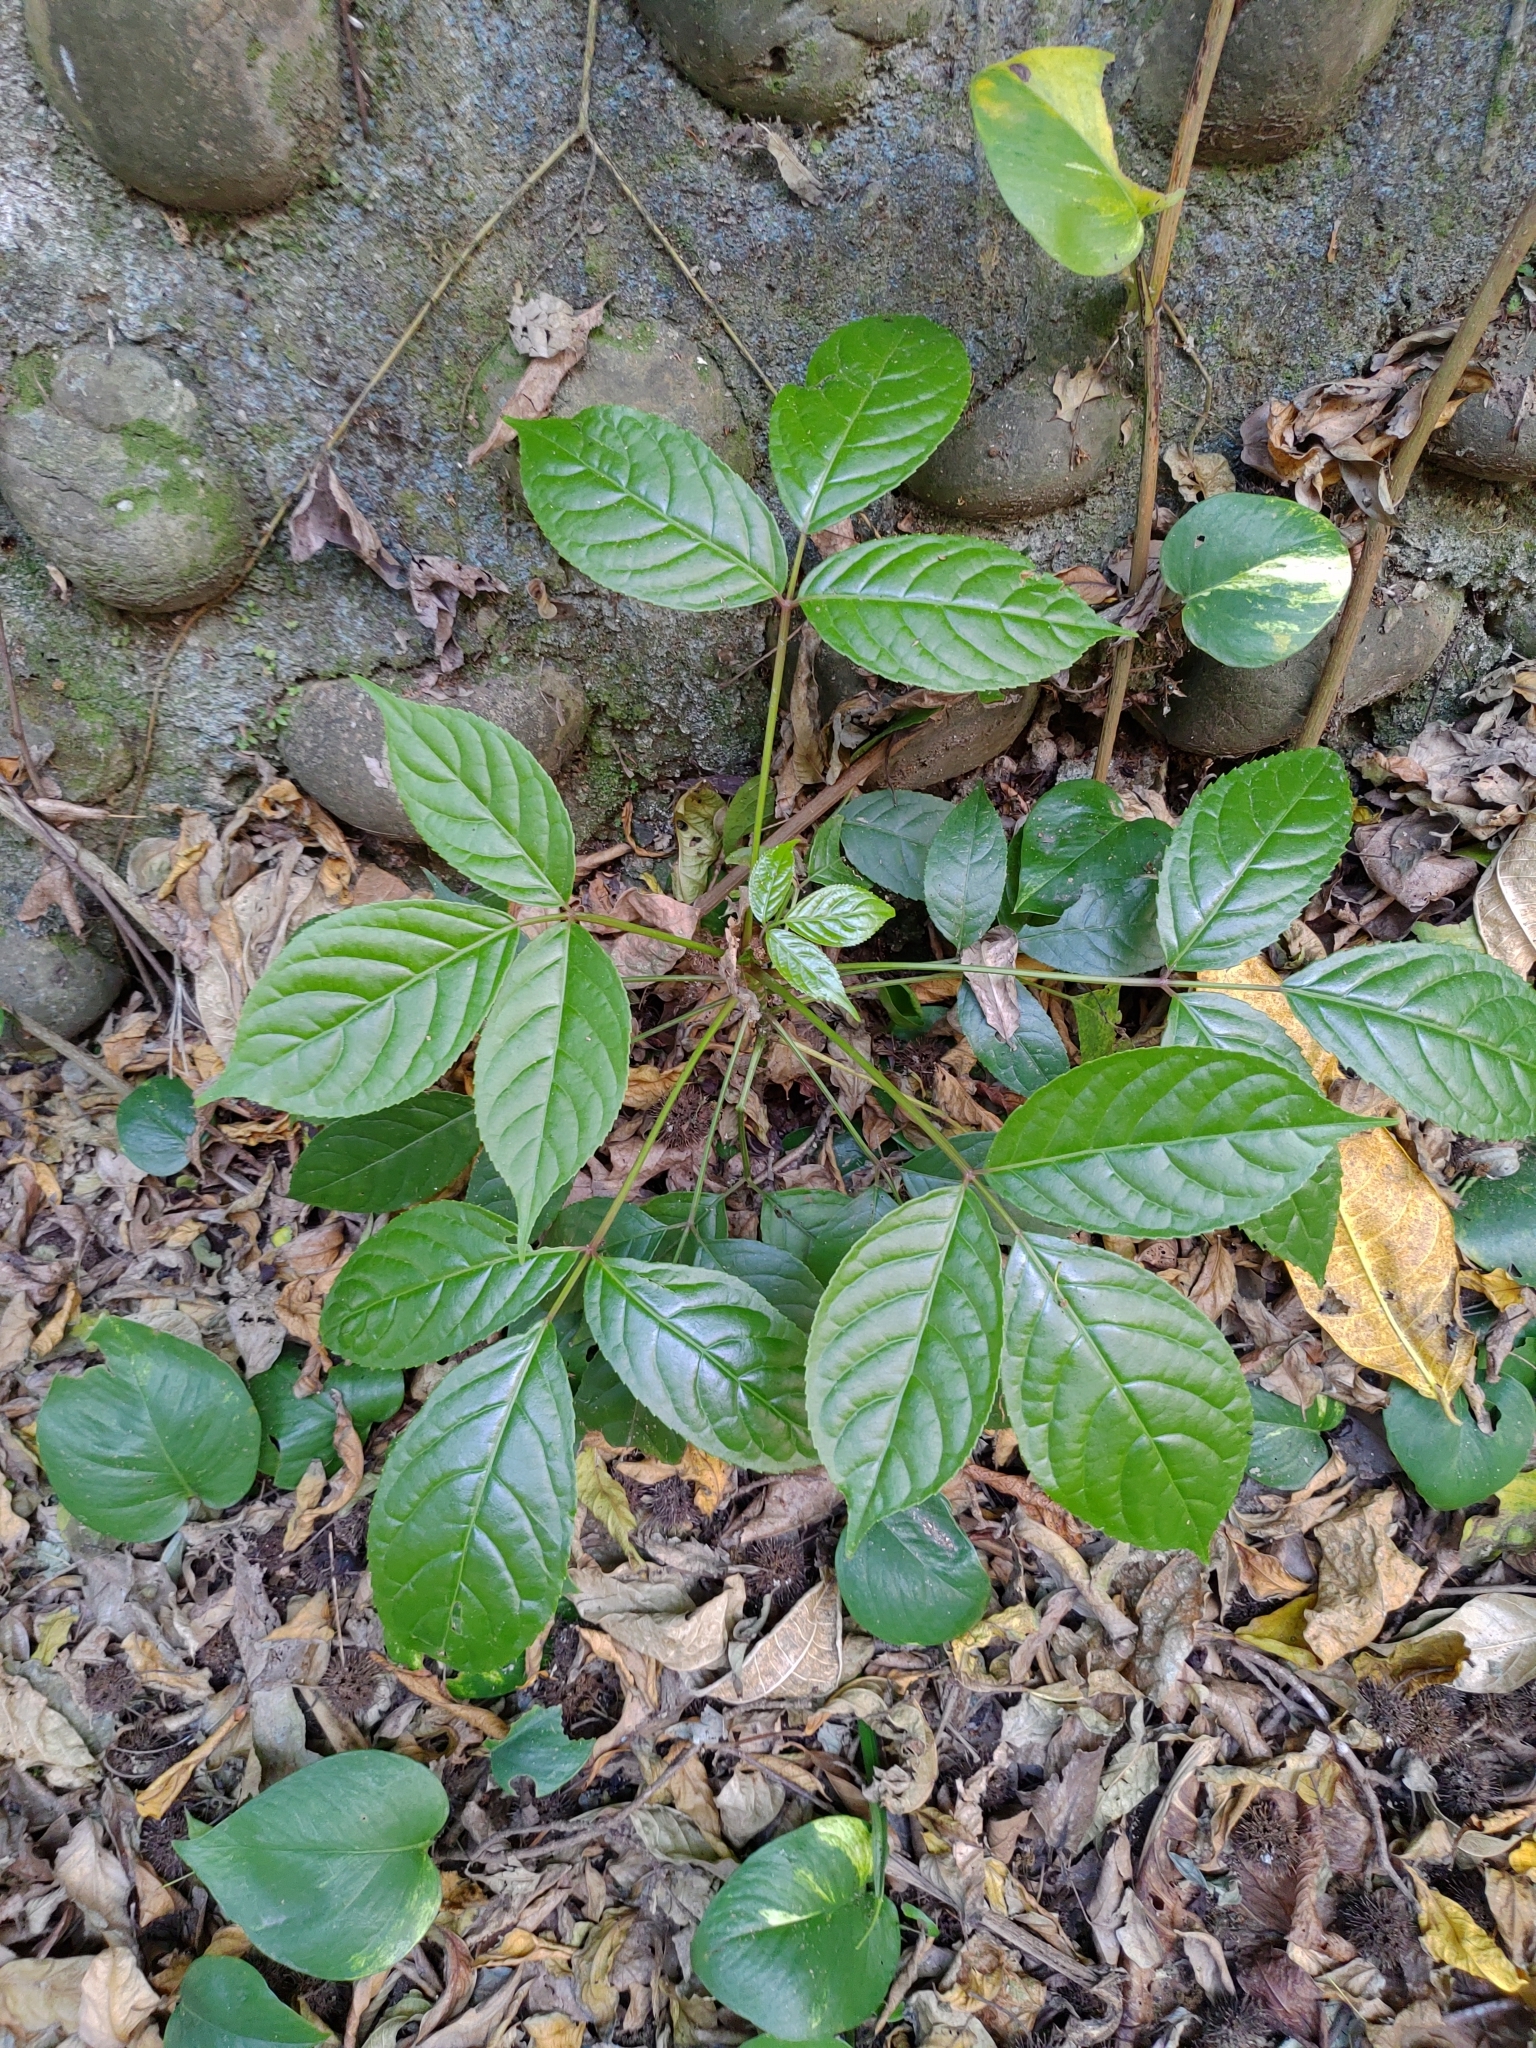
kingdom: Plantae
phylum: Tracheophyta
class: Magnoliopsida
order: Malpighiales
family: Phyllanthaceae
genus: Bischofia
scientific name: Bischofia javanica
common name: Javanese bishopwood
